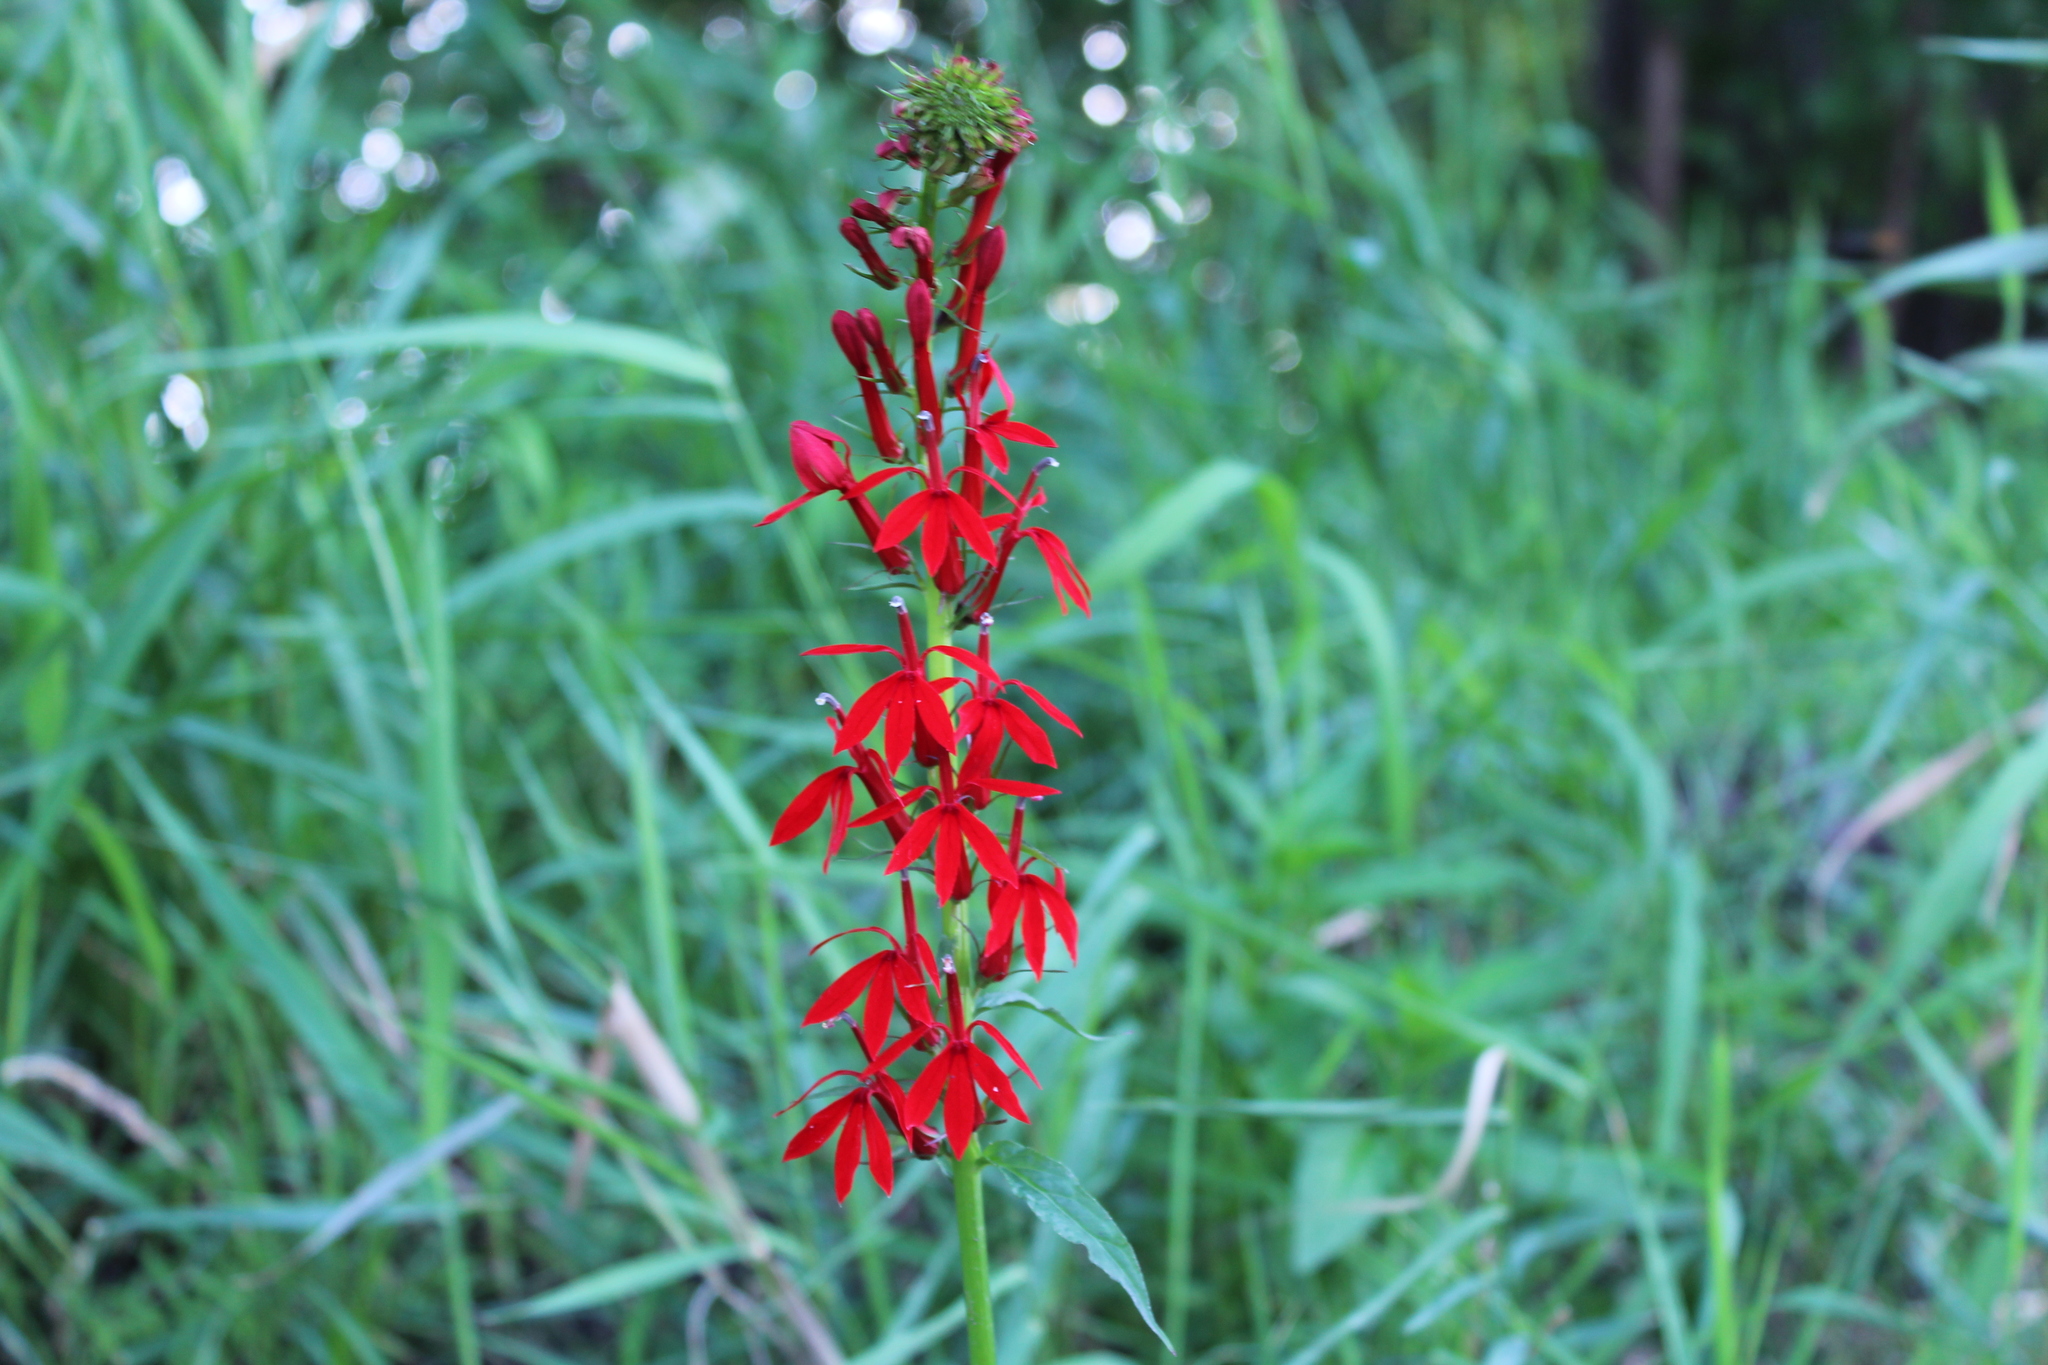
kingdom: Plantae
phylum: Tracheophyta
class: Magnoliopsida
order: Asterales
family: Campanulaceae
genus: Lobelia
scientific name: Lobelia cardinalis
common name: Cardinal flower
